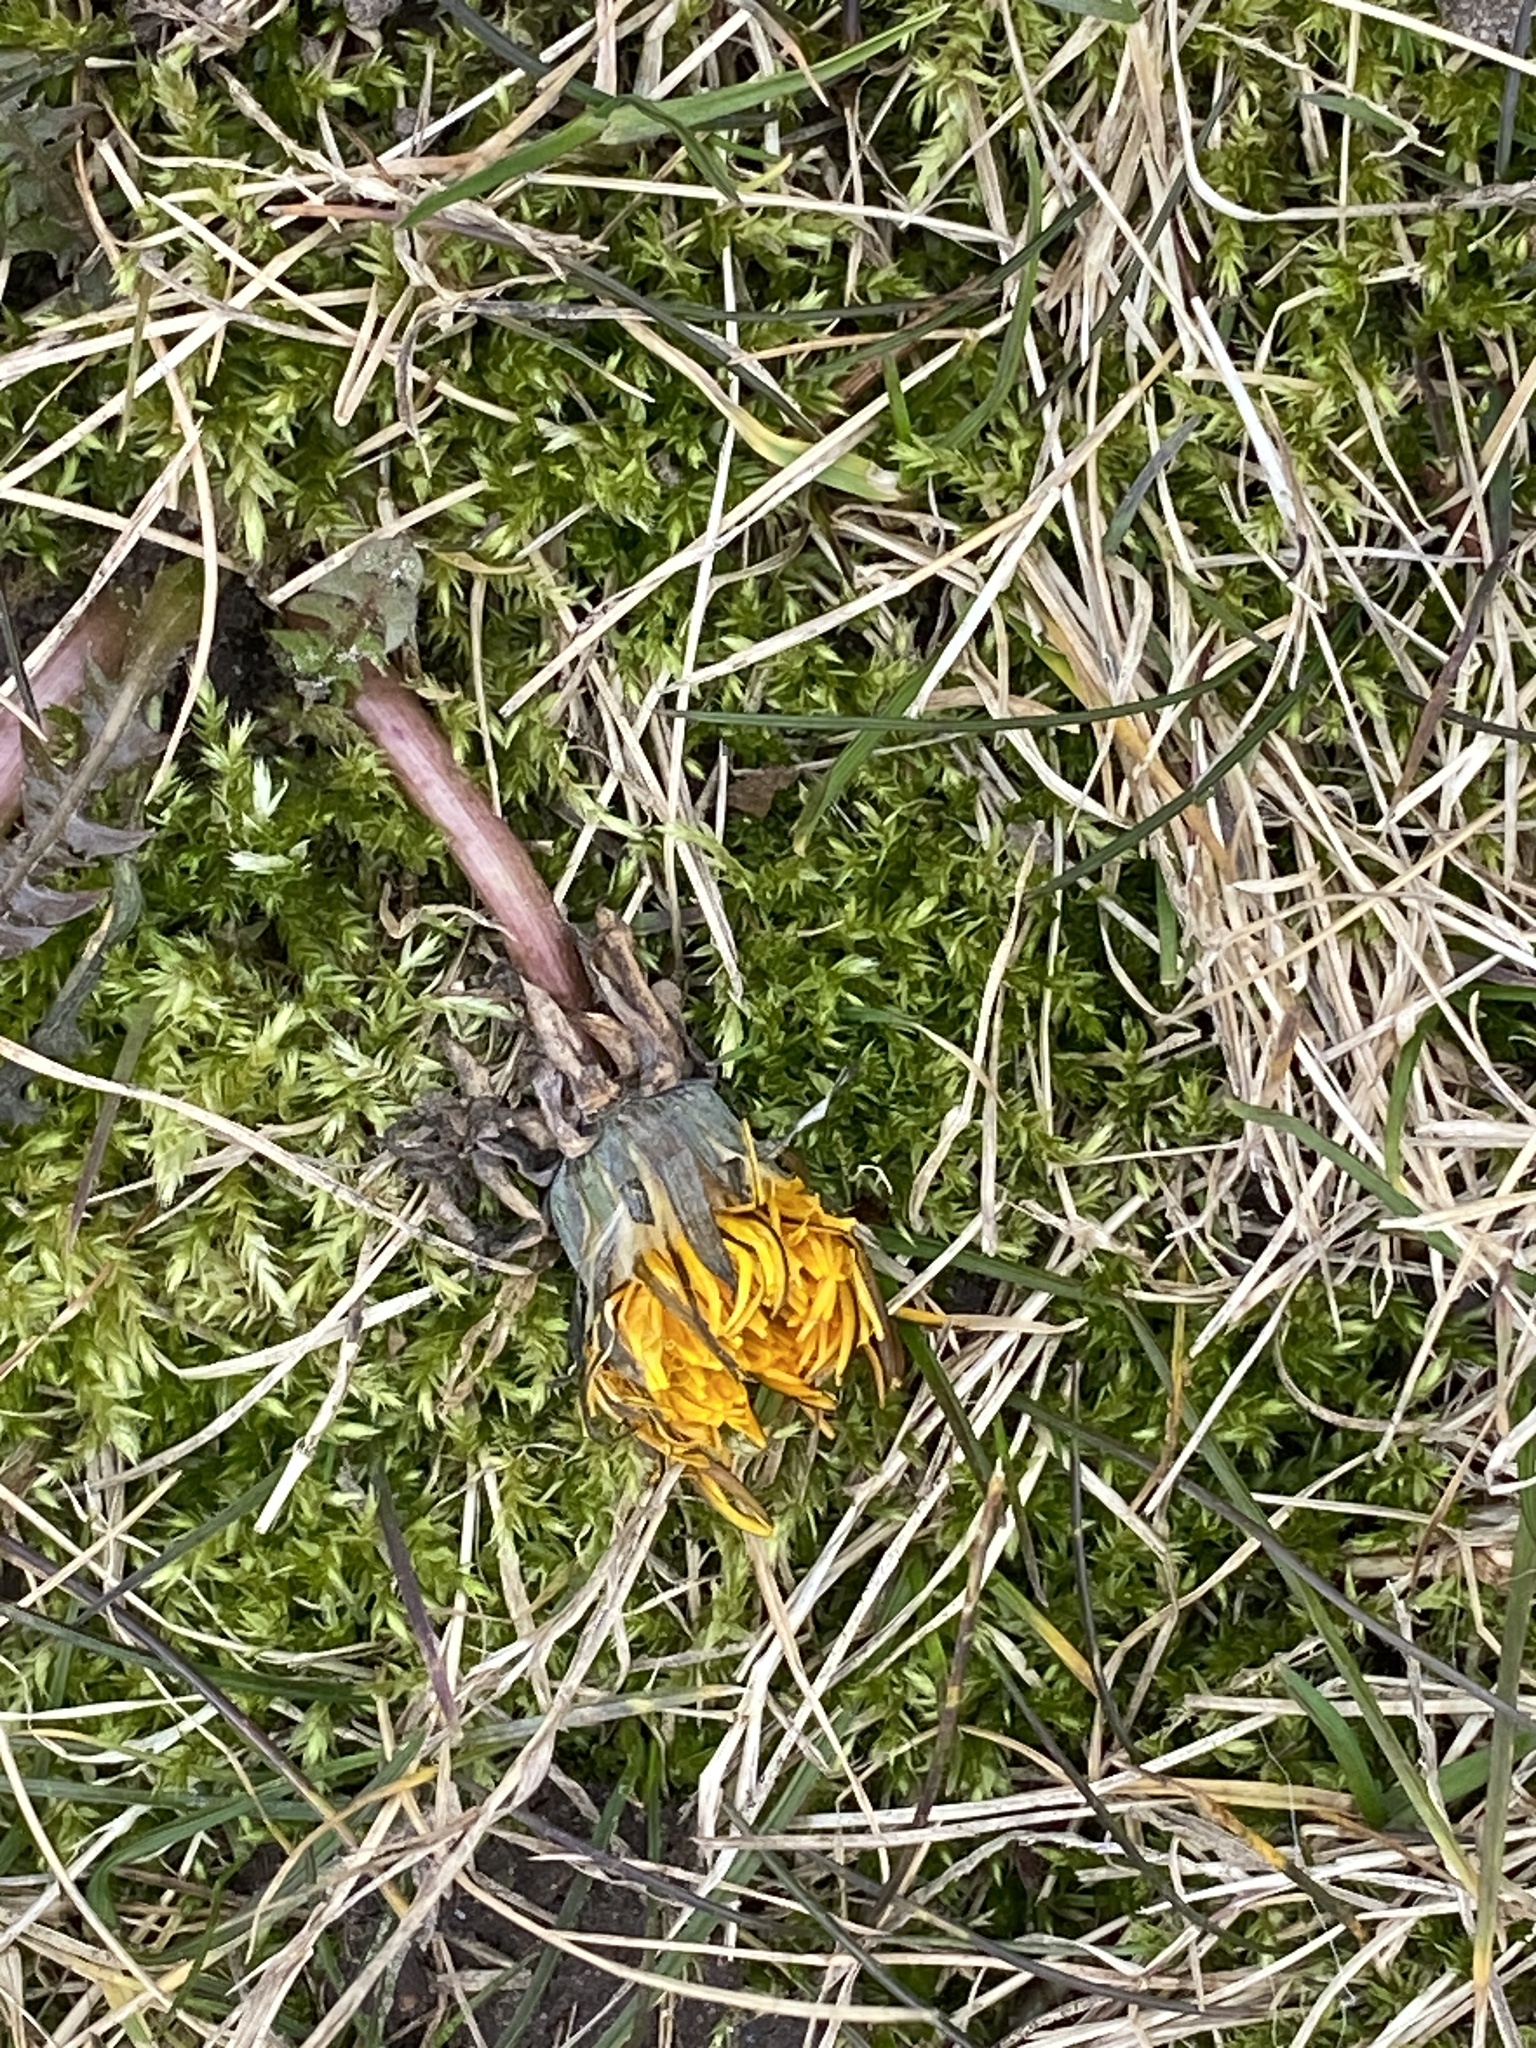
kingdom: Plantae
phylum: Tracheophyta
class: Magnoliopsida
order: Asterales
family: Asteraceae
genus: Taraxacum
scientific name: Taraxacum
